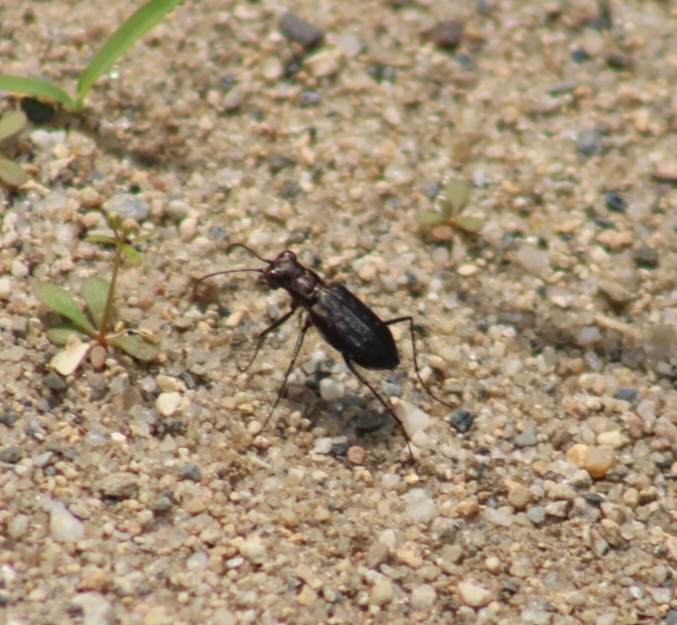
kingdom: Animalia
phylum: Arthropoda
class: Insecta
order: Coleoptera
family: Carabidae
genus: Cicindela
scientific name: Cicindela punctulata
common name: Punctured tiger beetle
